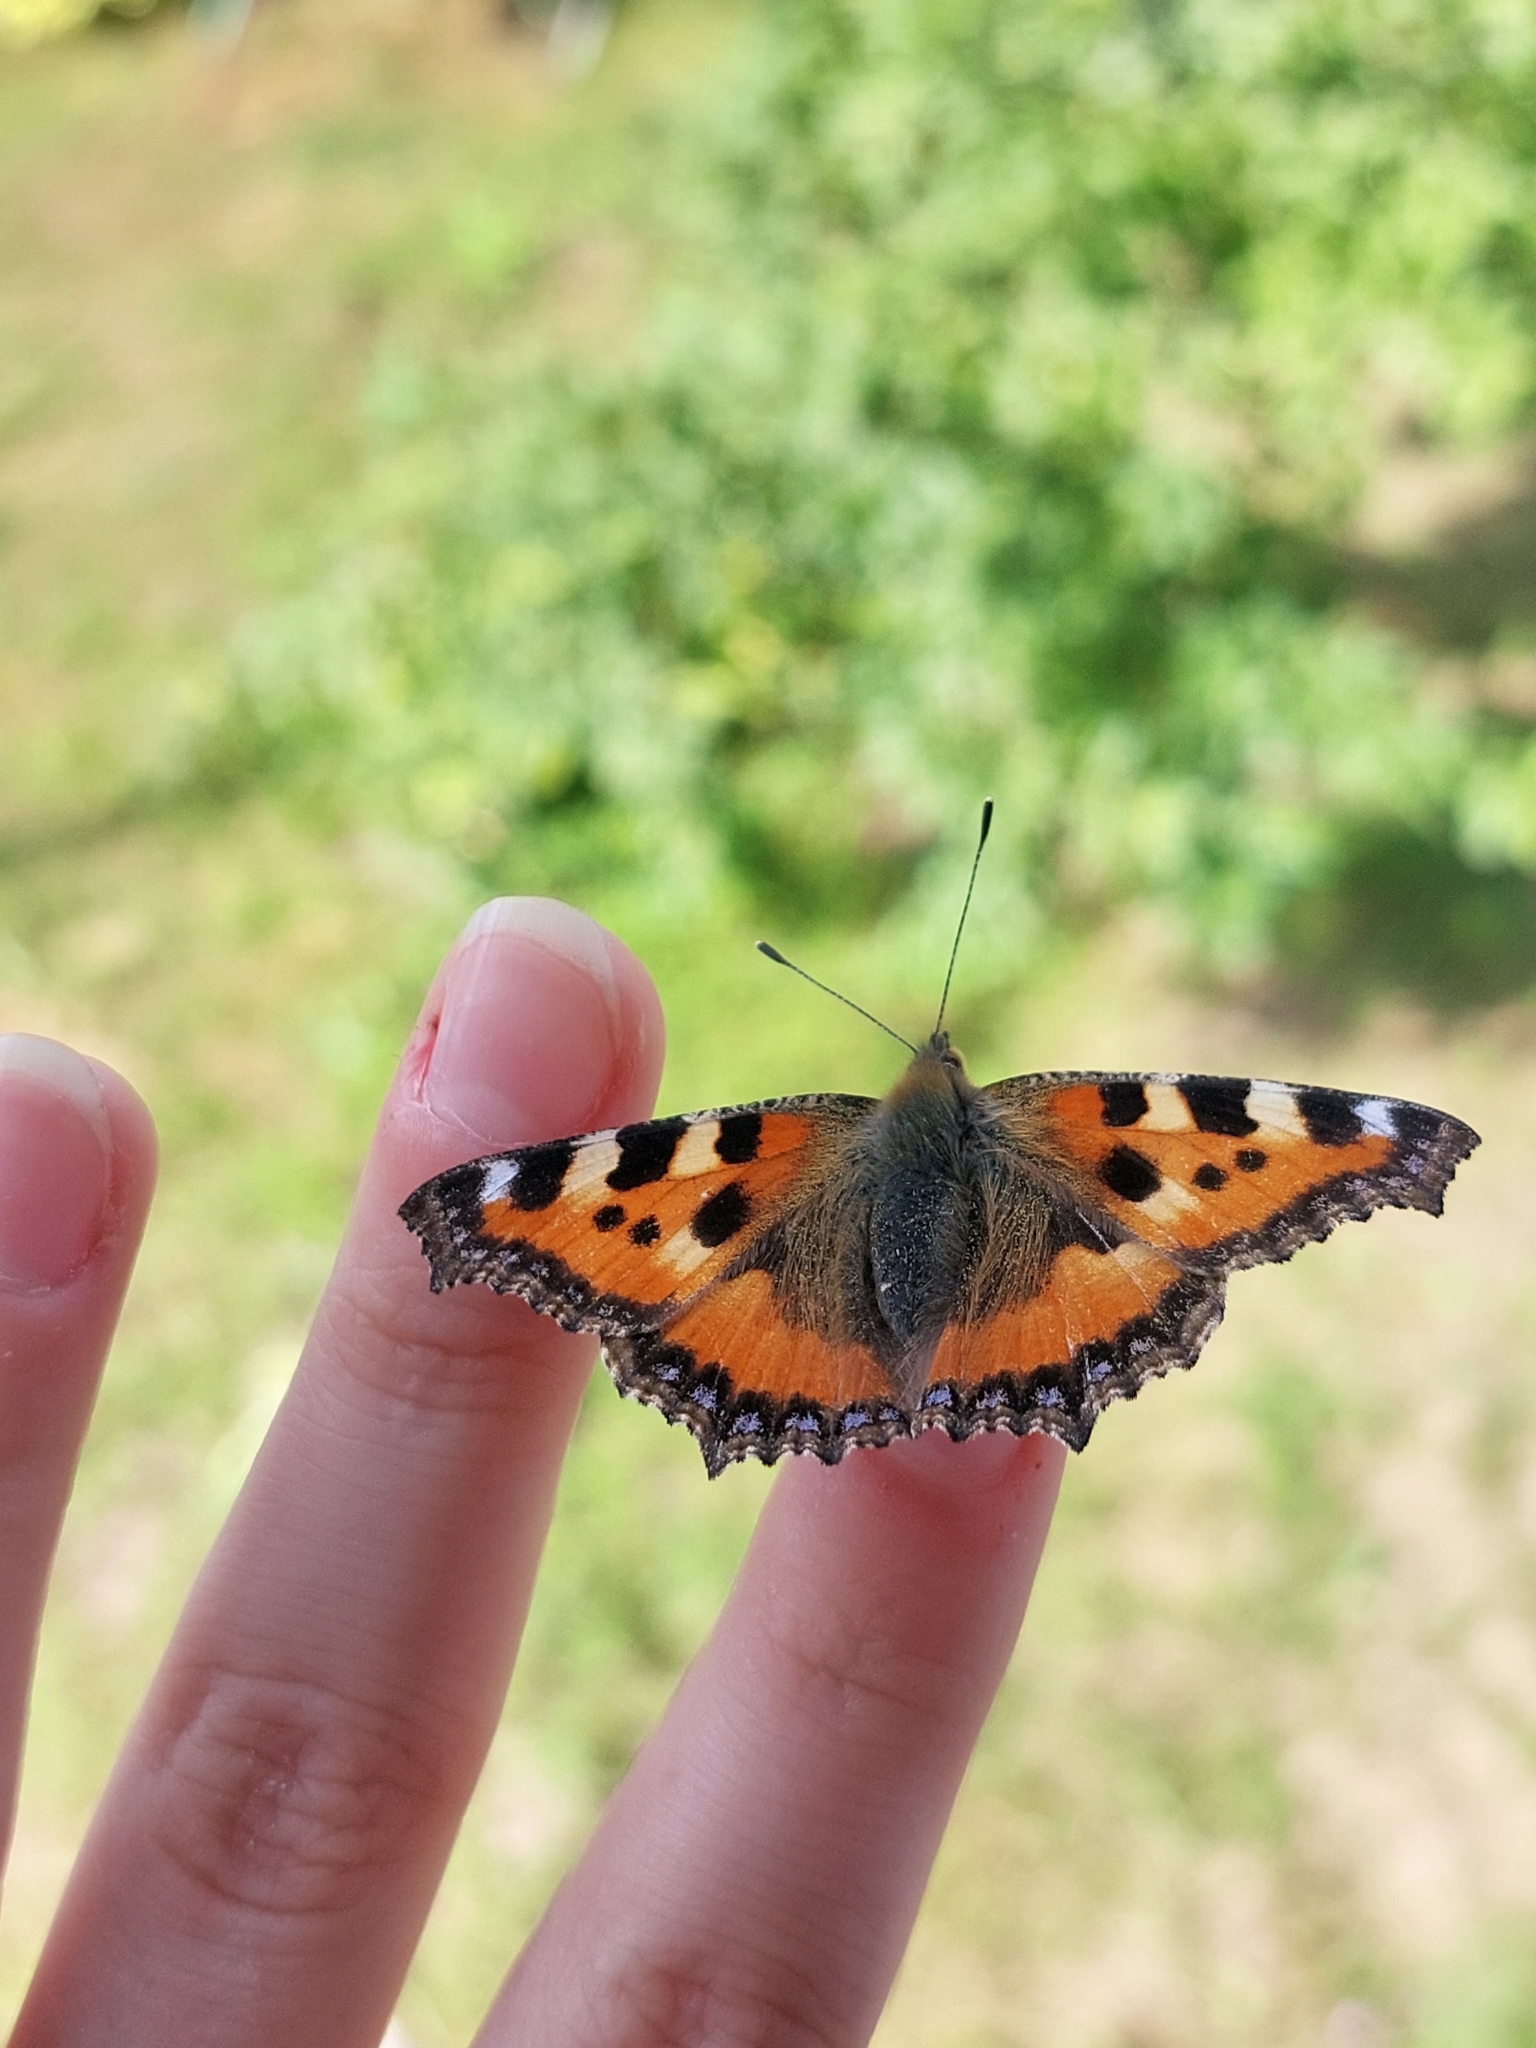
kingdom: Animalia
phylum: Arthropoda
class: Insecta
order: Lepidoptera
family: Nymphalidae
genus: Aglais
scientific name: Aglais urticae
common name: Small tortoiseshell
